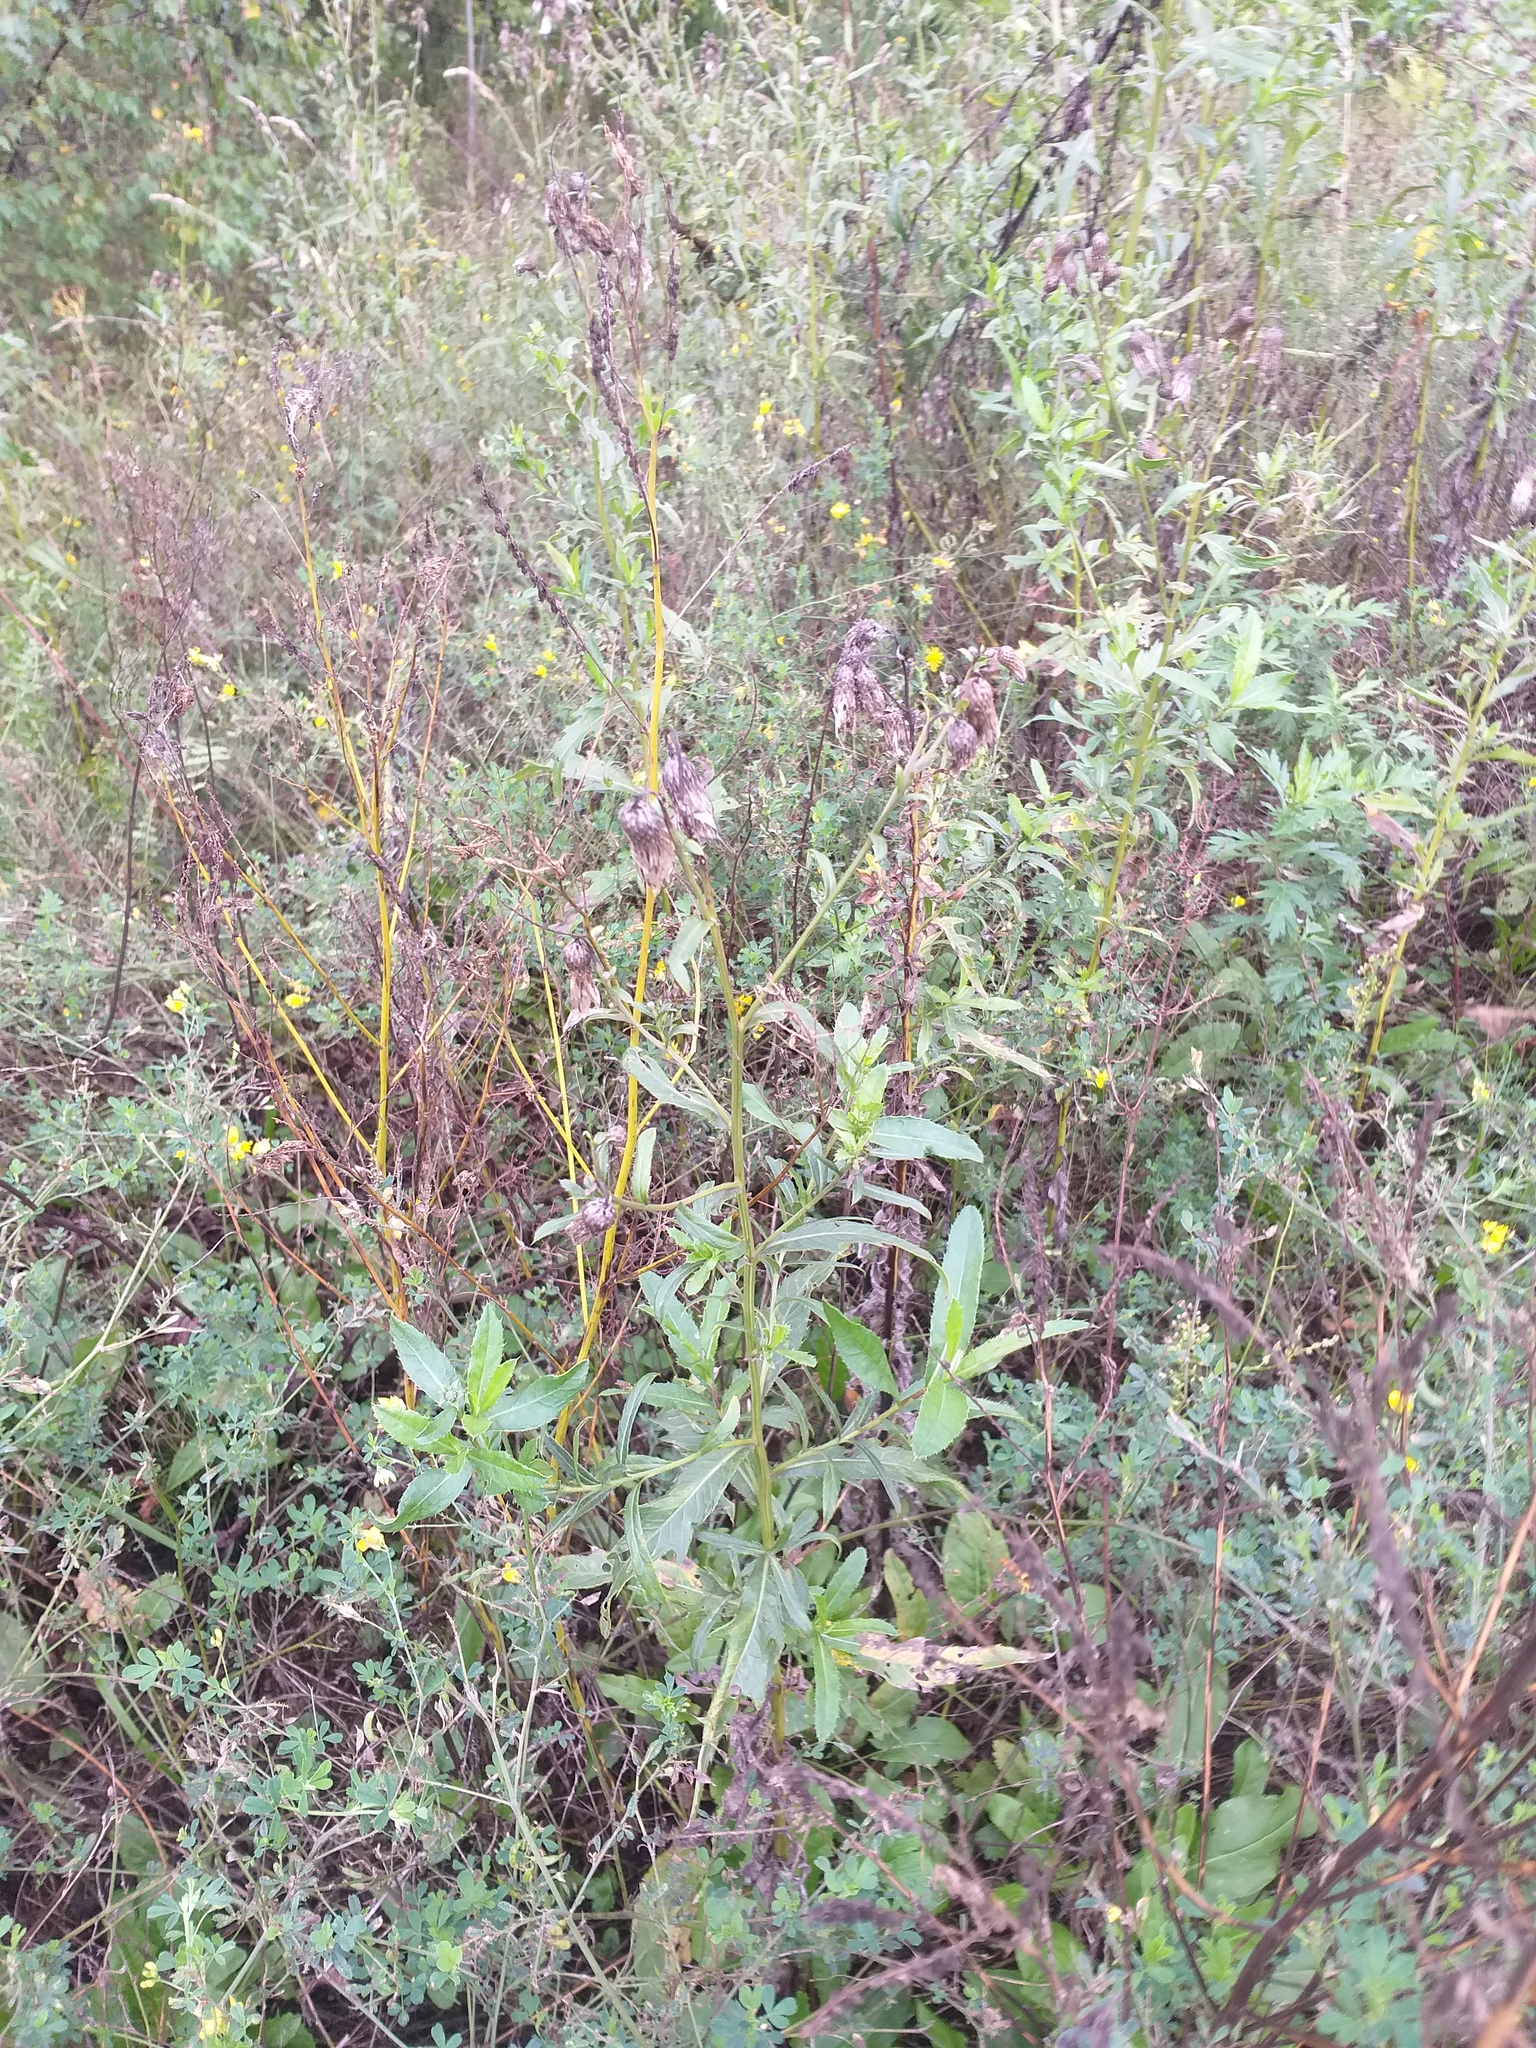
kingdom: Plantae
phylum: Tracheophyta
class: Magnoliopsida
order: Asterales
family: Asteraceae
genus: Cirsium
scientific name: Cirsium arvense
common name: Creeping thistle
